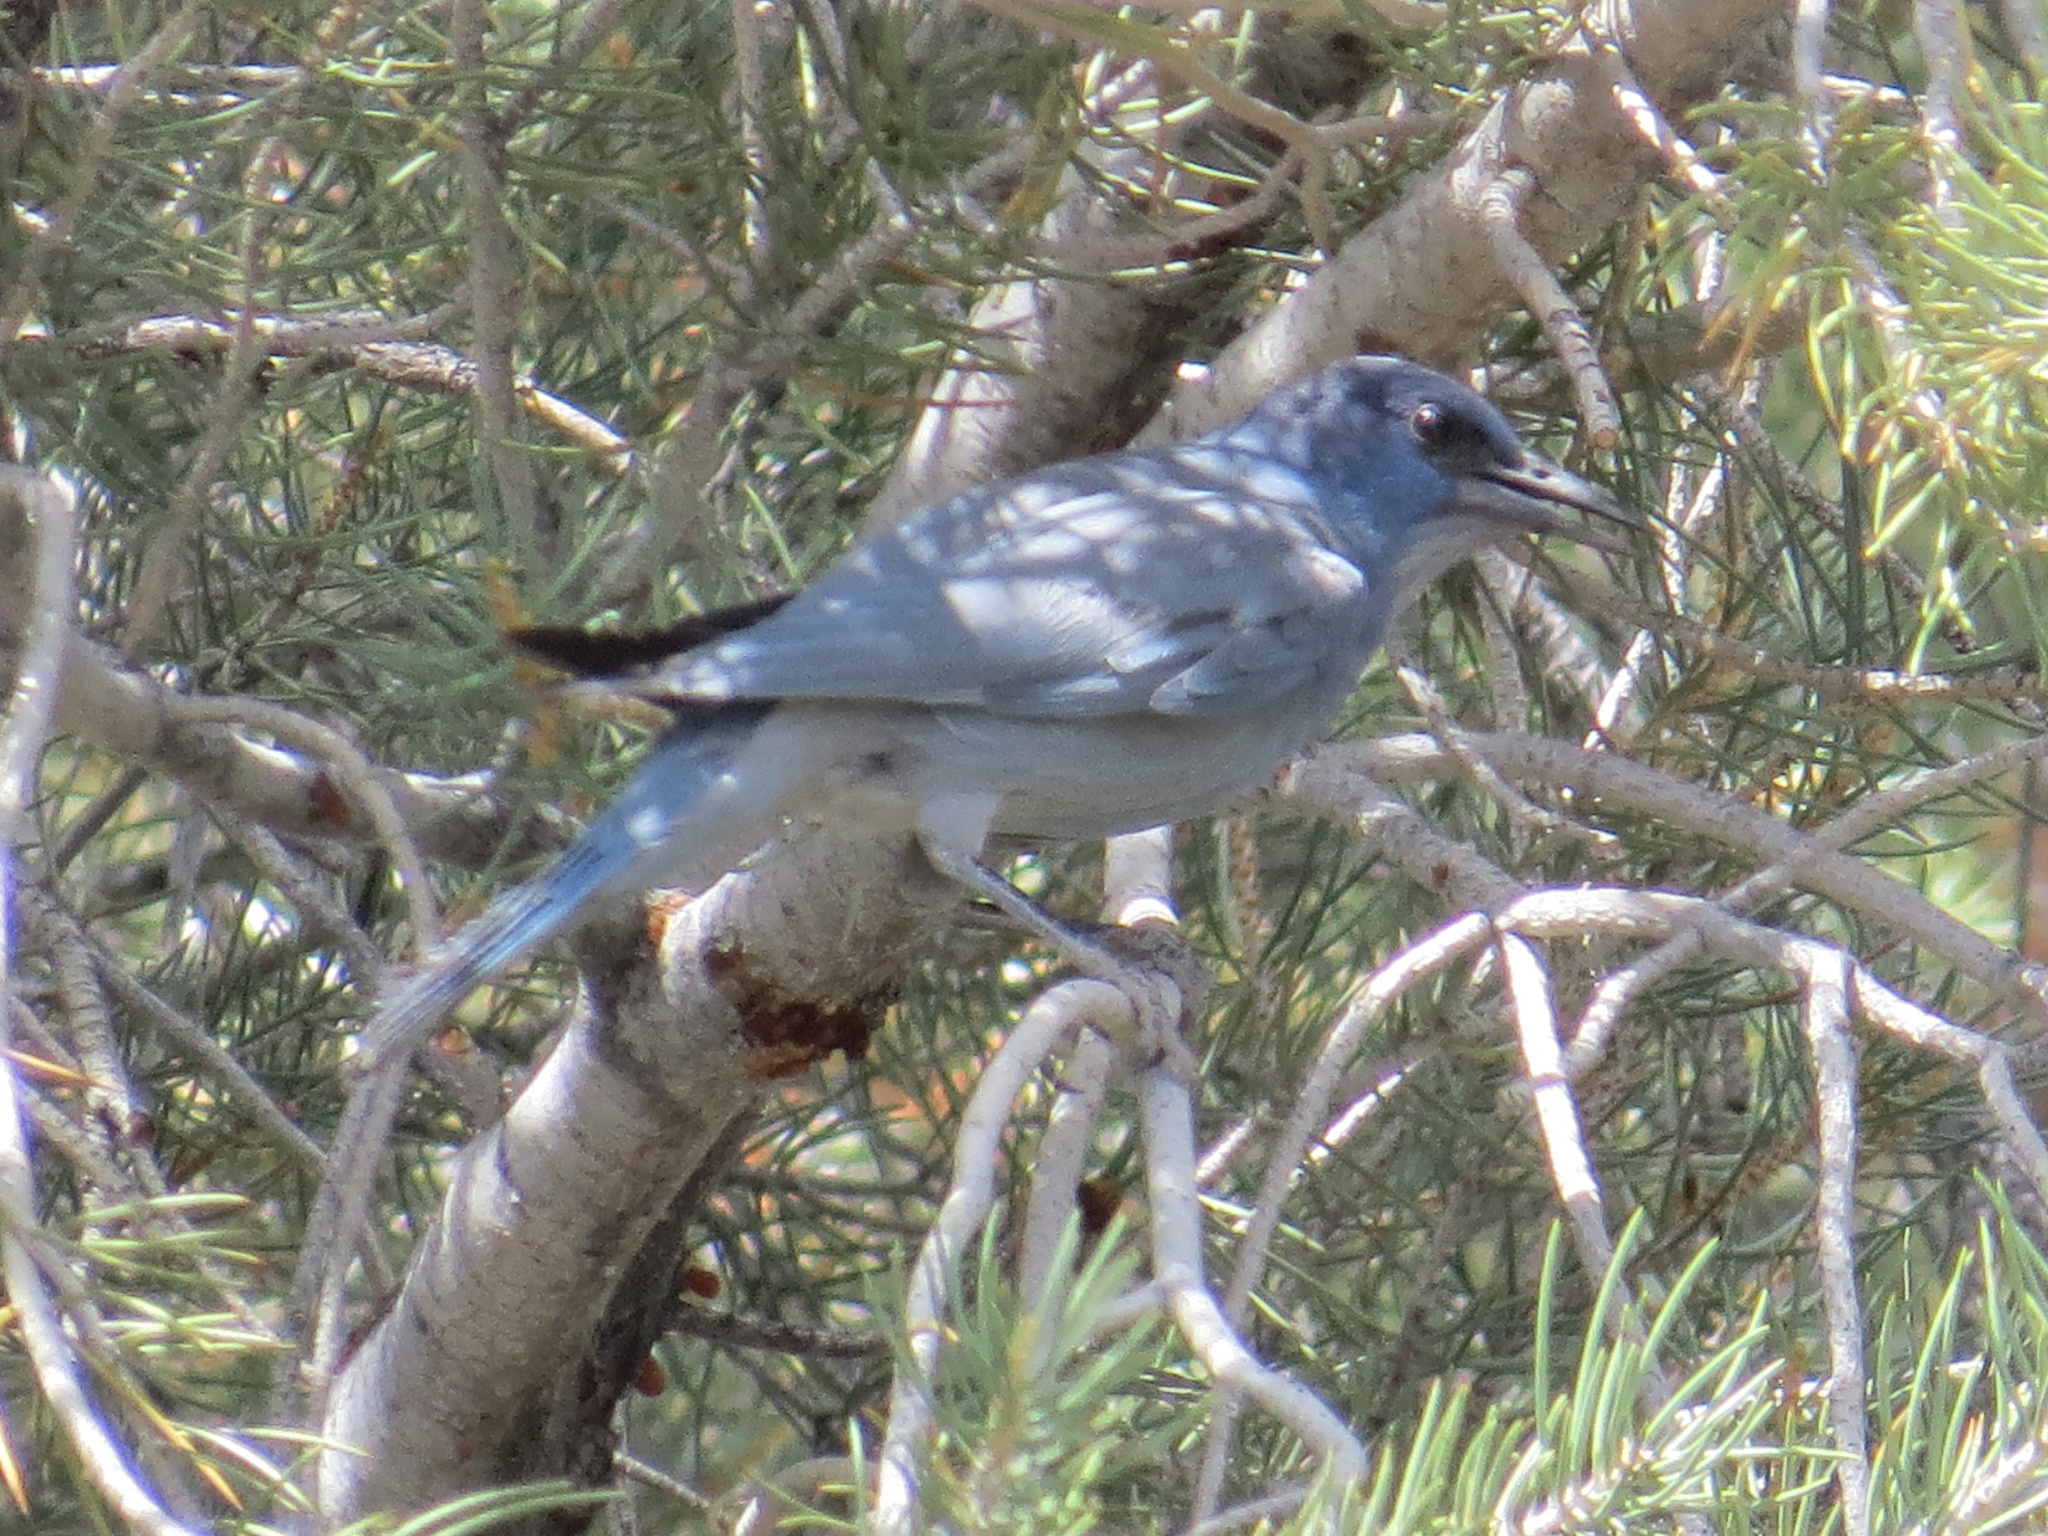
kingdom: Animalia
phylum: Chordata
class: Aves
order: Passeriformes
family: Corvidae
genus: Gymnorhinus
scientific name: Gymnorhinus cyanocephalus
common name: Pinyon jay
